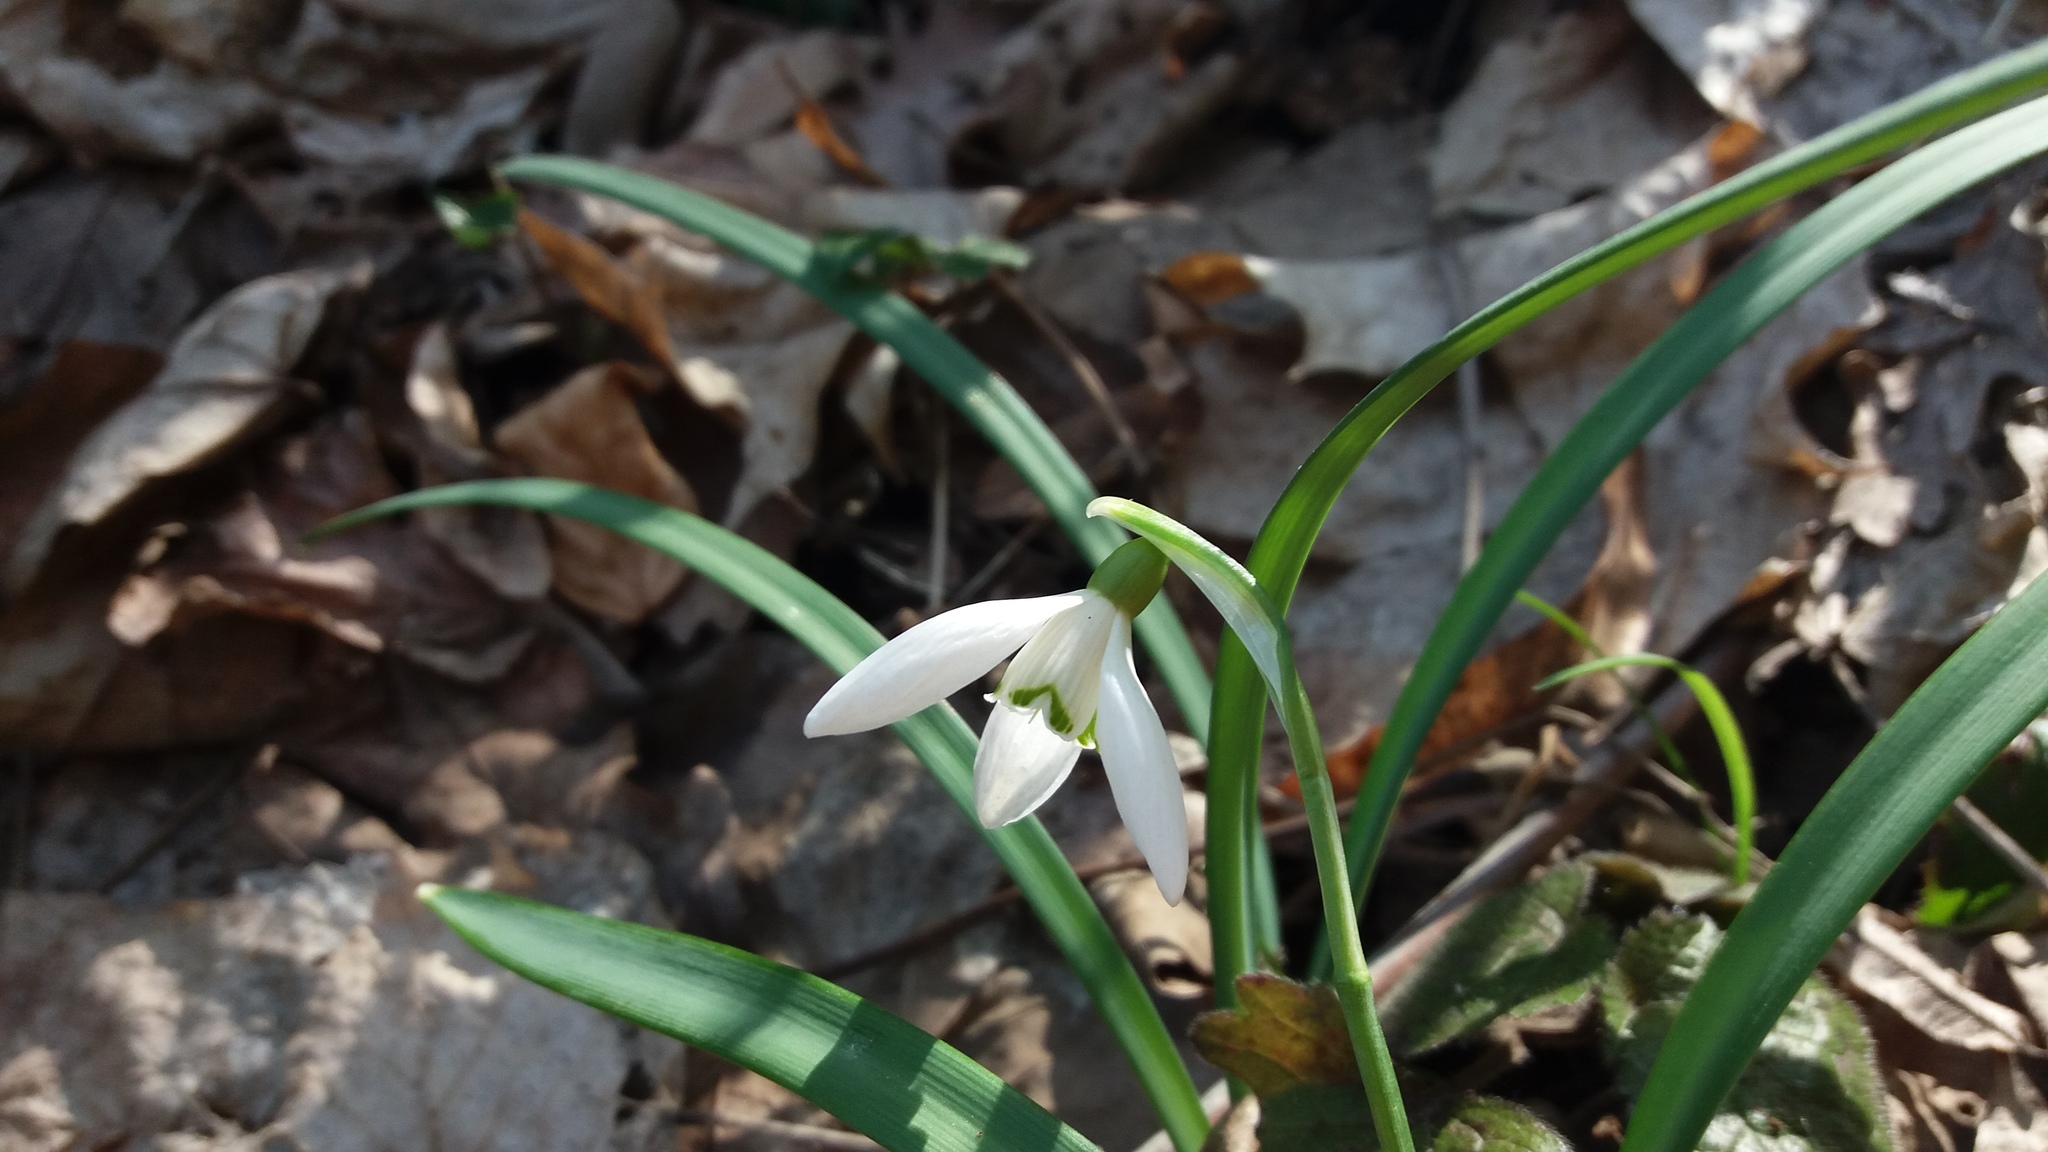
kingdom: Plantae
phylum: Tracheophyta
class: Liliopsida
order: Asparagales
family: Amaryllidaceae
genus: Galanthus
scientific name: Galanthus nivalis
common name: Snowdrop
